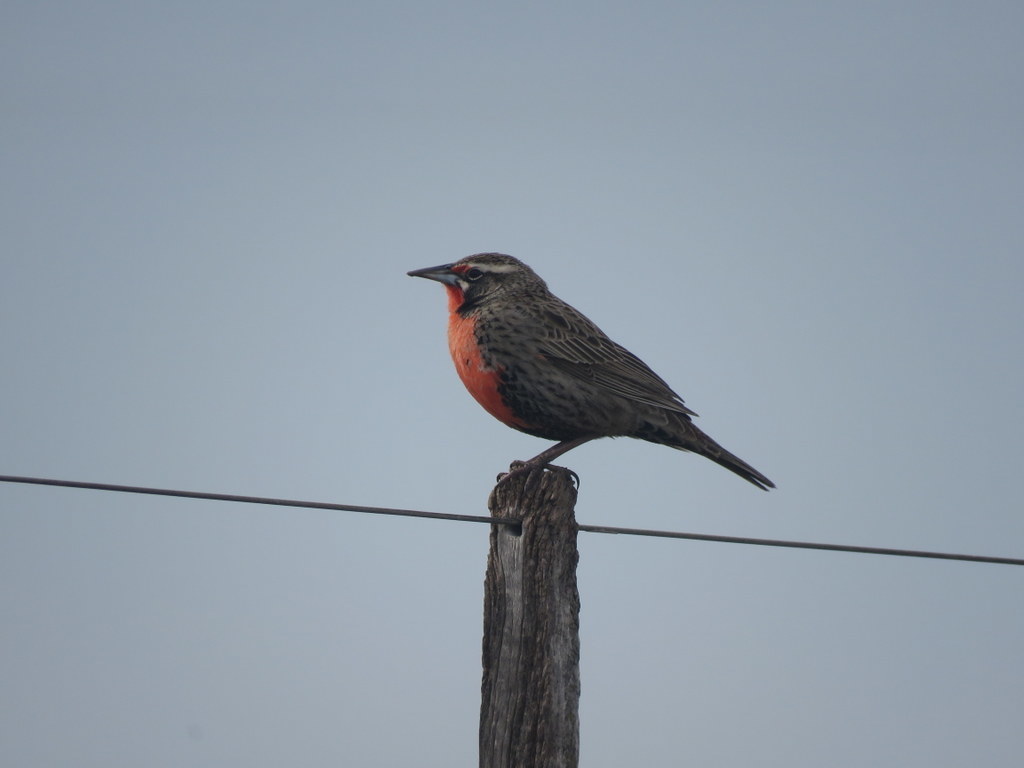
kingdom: Animalia
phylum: Chordata
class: Aves
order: Passeriformes
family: Icteridae
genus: Sturnella
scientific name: Sturnella loyca
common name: Long-tailed meadowlark
